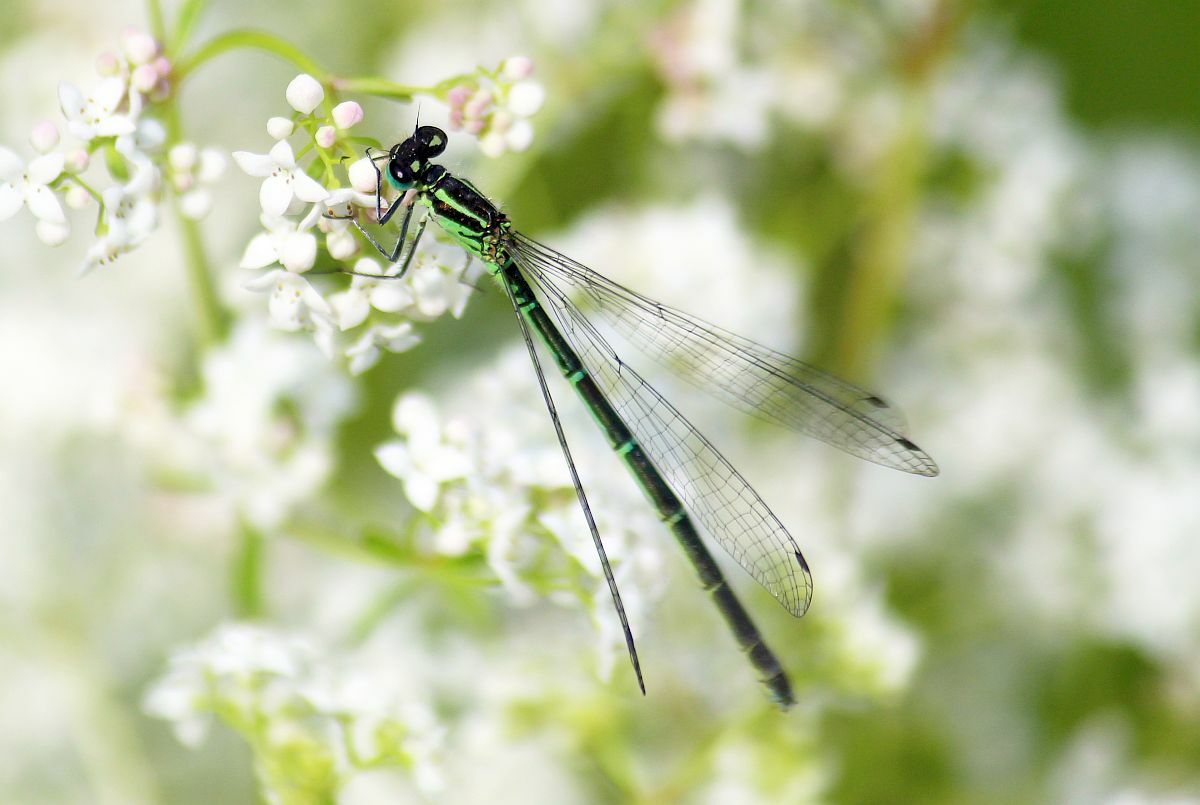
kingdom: Animalia
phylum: Arthropoda
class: Insecta
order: Odonata
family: Coenagrionidae
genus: Coenagrion
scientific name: Coenagrion puella
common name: Azure damselfly
